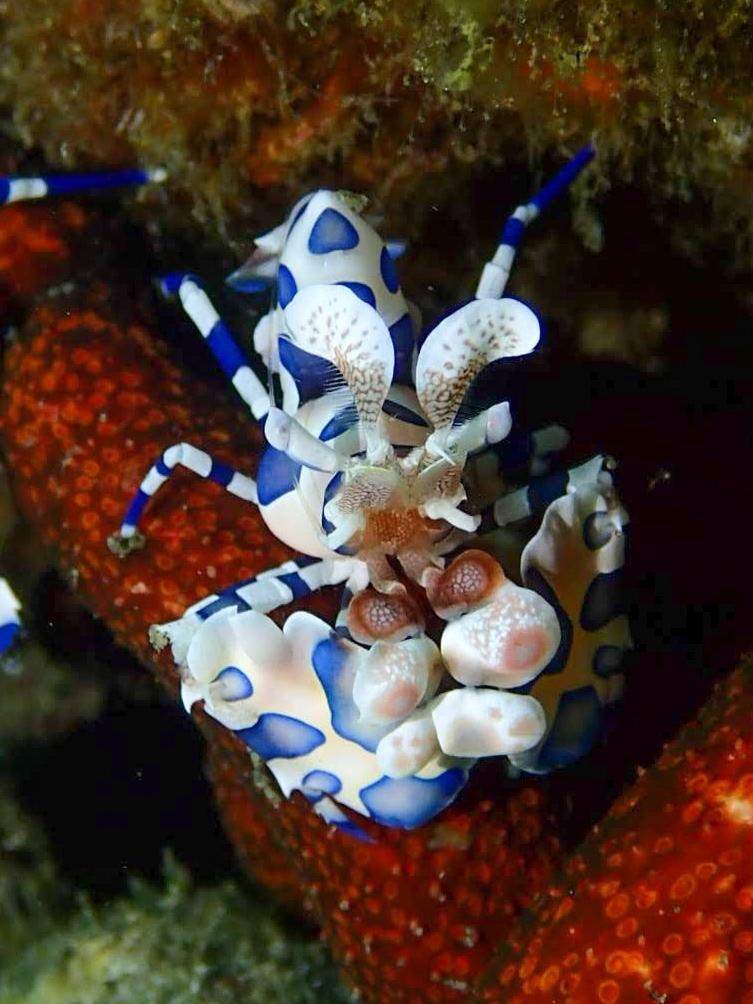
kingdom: Animalia
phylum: Arthropoda
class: Malacostraca
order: Decapoda
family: Palaemonidae
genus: Hymenocera
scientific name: Hymenocera picta
